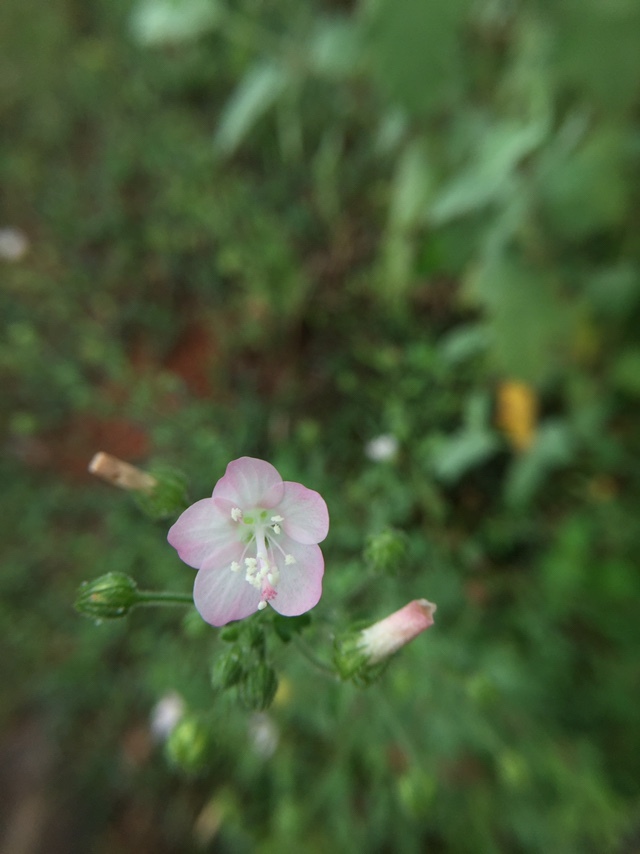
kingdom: Plantae
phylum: Tracheophyta
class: Magnoliopsida
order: Malvales
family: Malvaceae
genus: Pavonia
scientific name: Pavonia zeylanica
